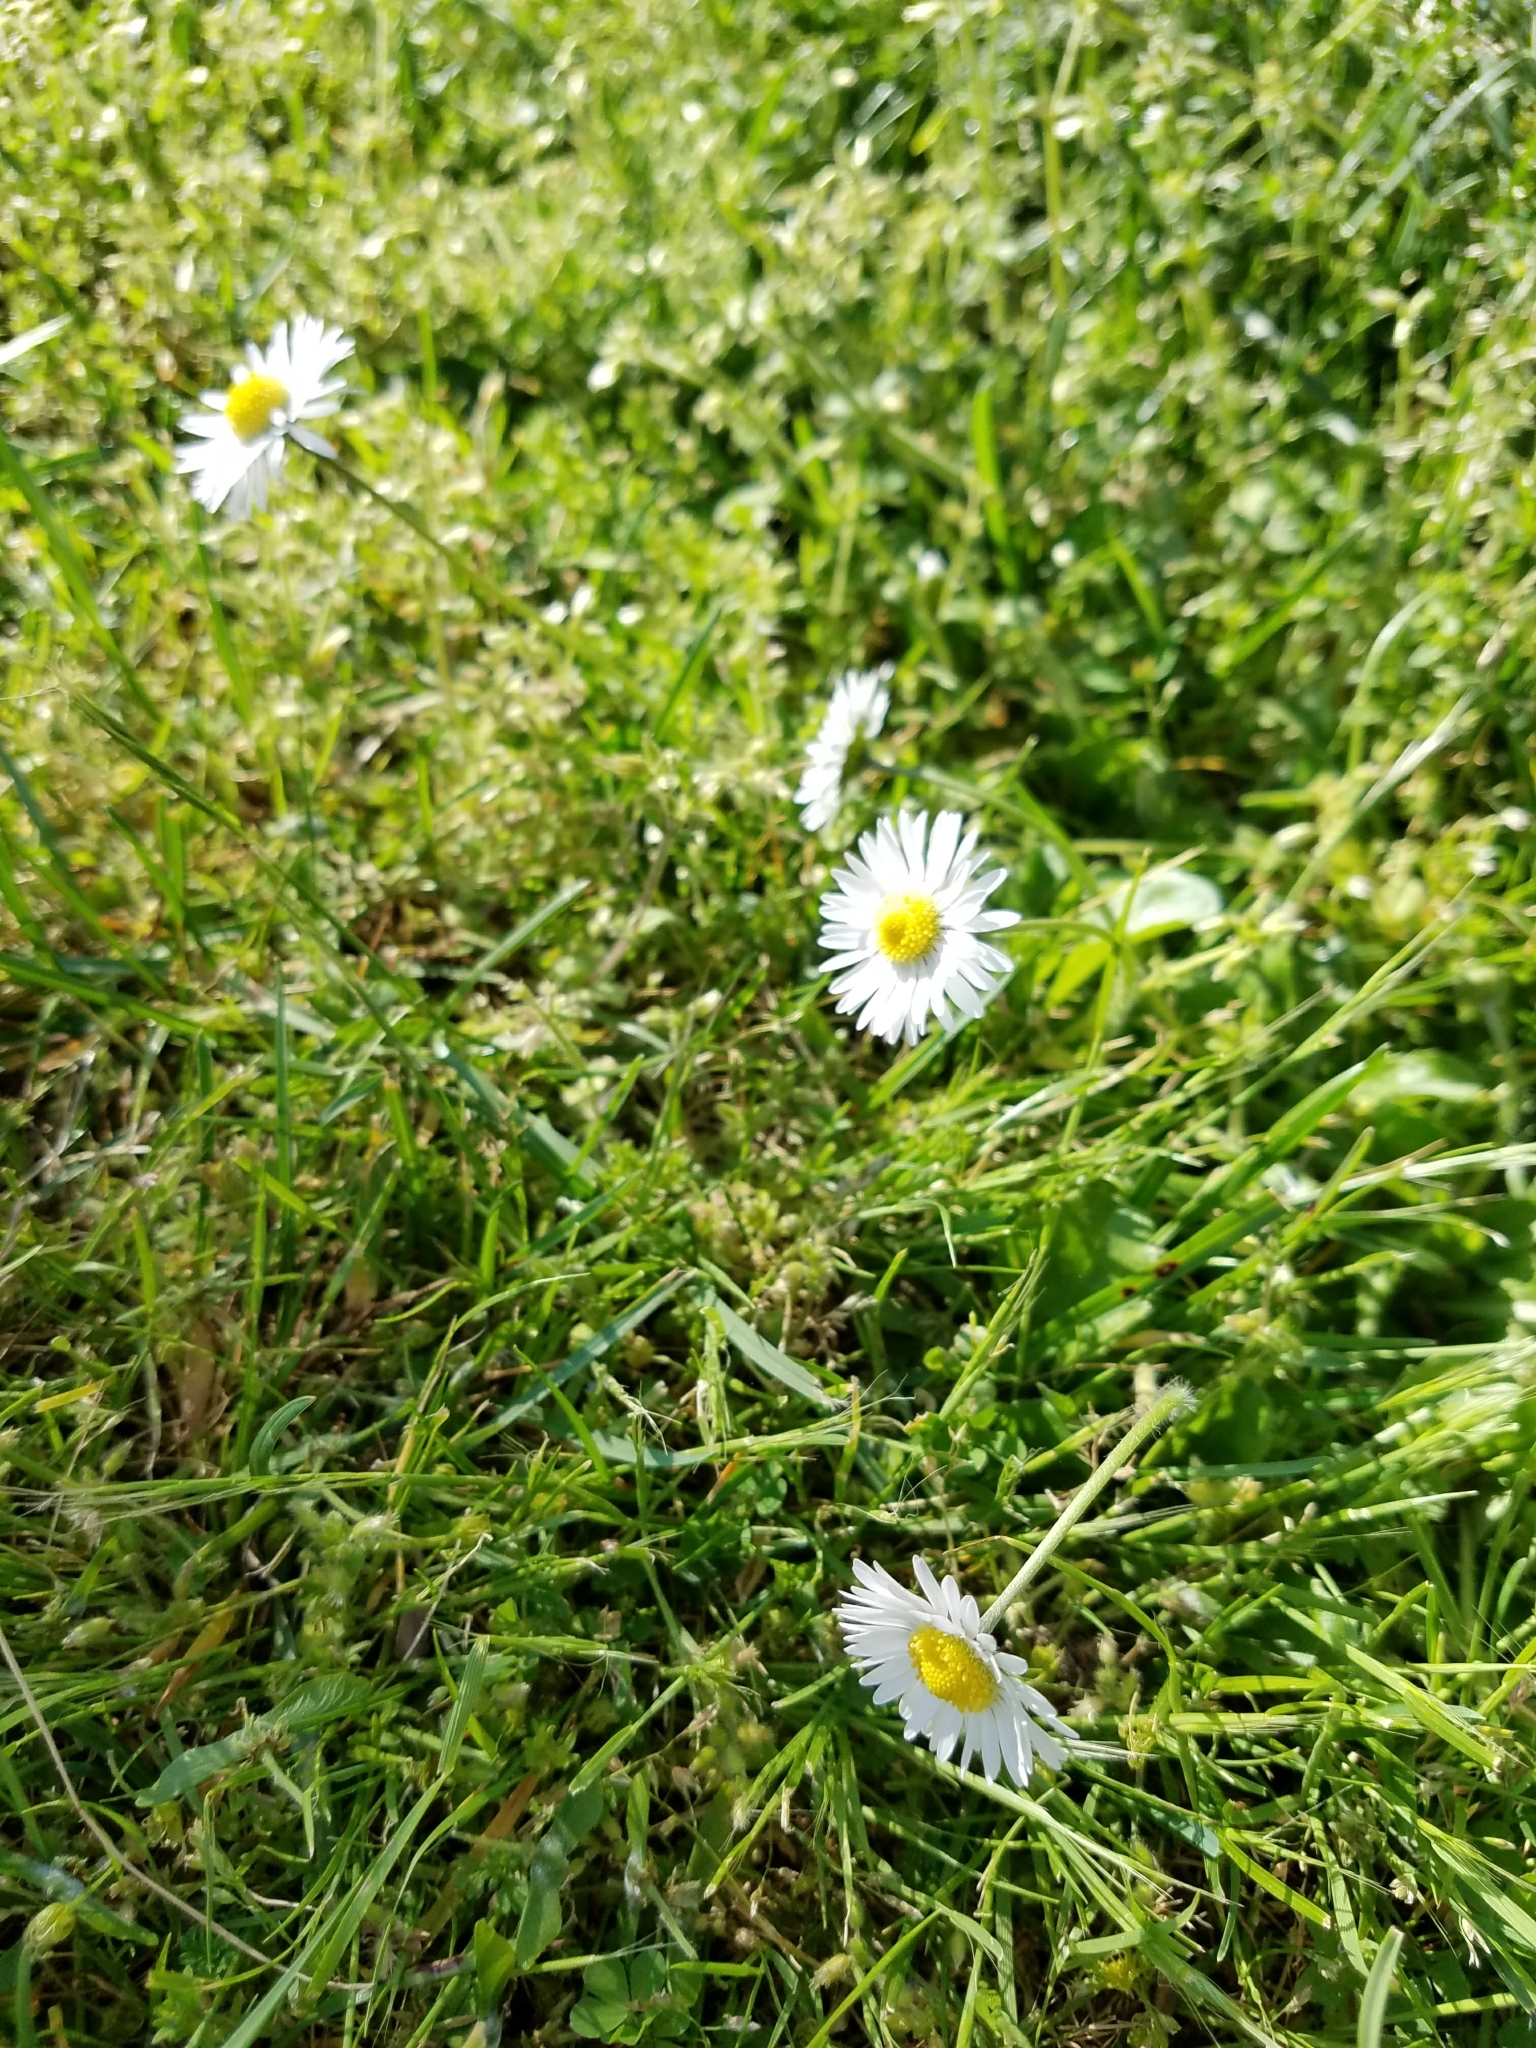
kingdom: Plantae
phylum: Tracheophyta
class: Magnoliopsida
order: Asterales
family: Asteraceae
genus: Bellis
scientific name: Bellis perennis
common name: Lawndaisy
